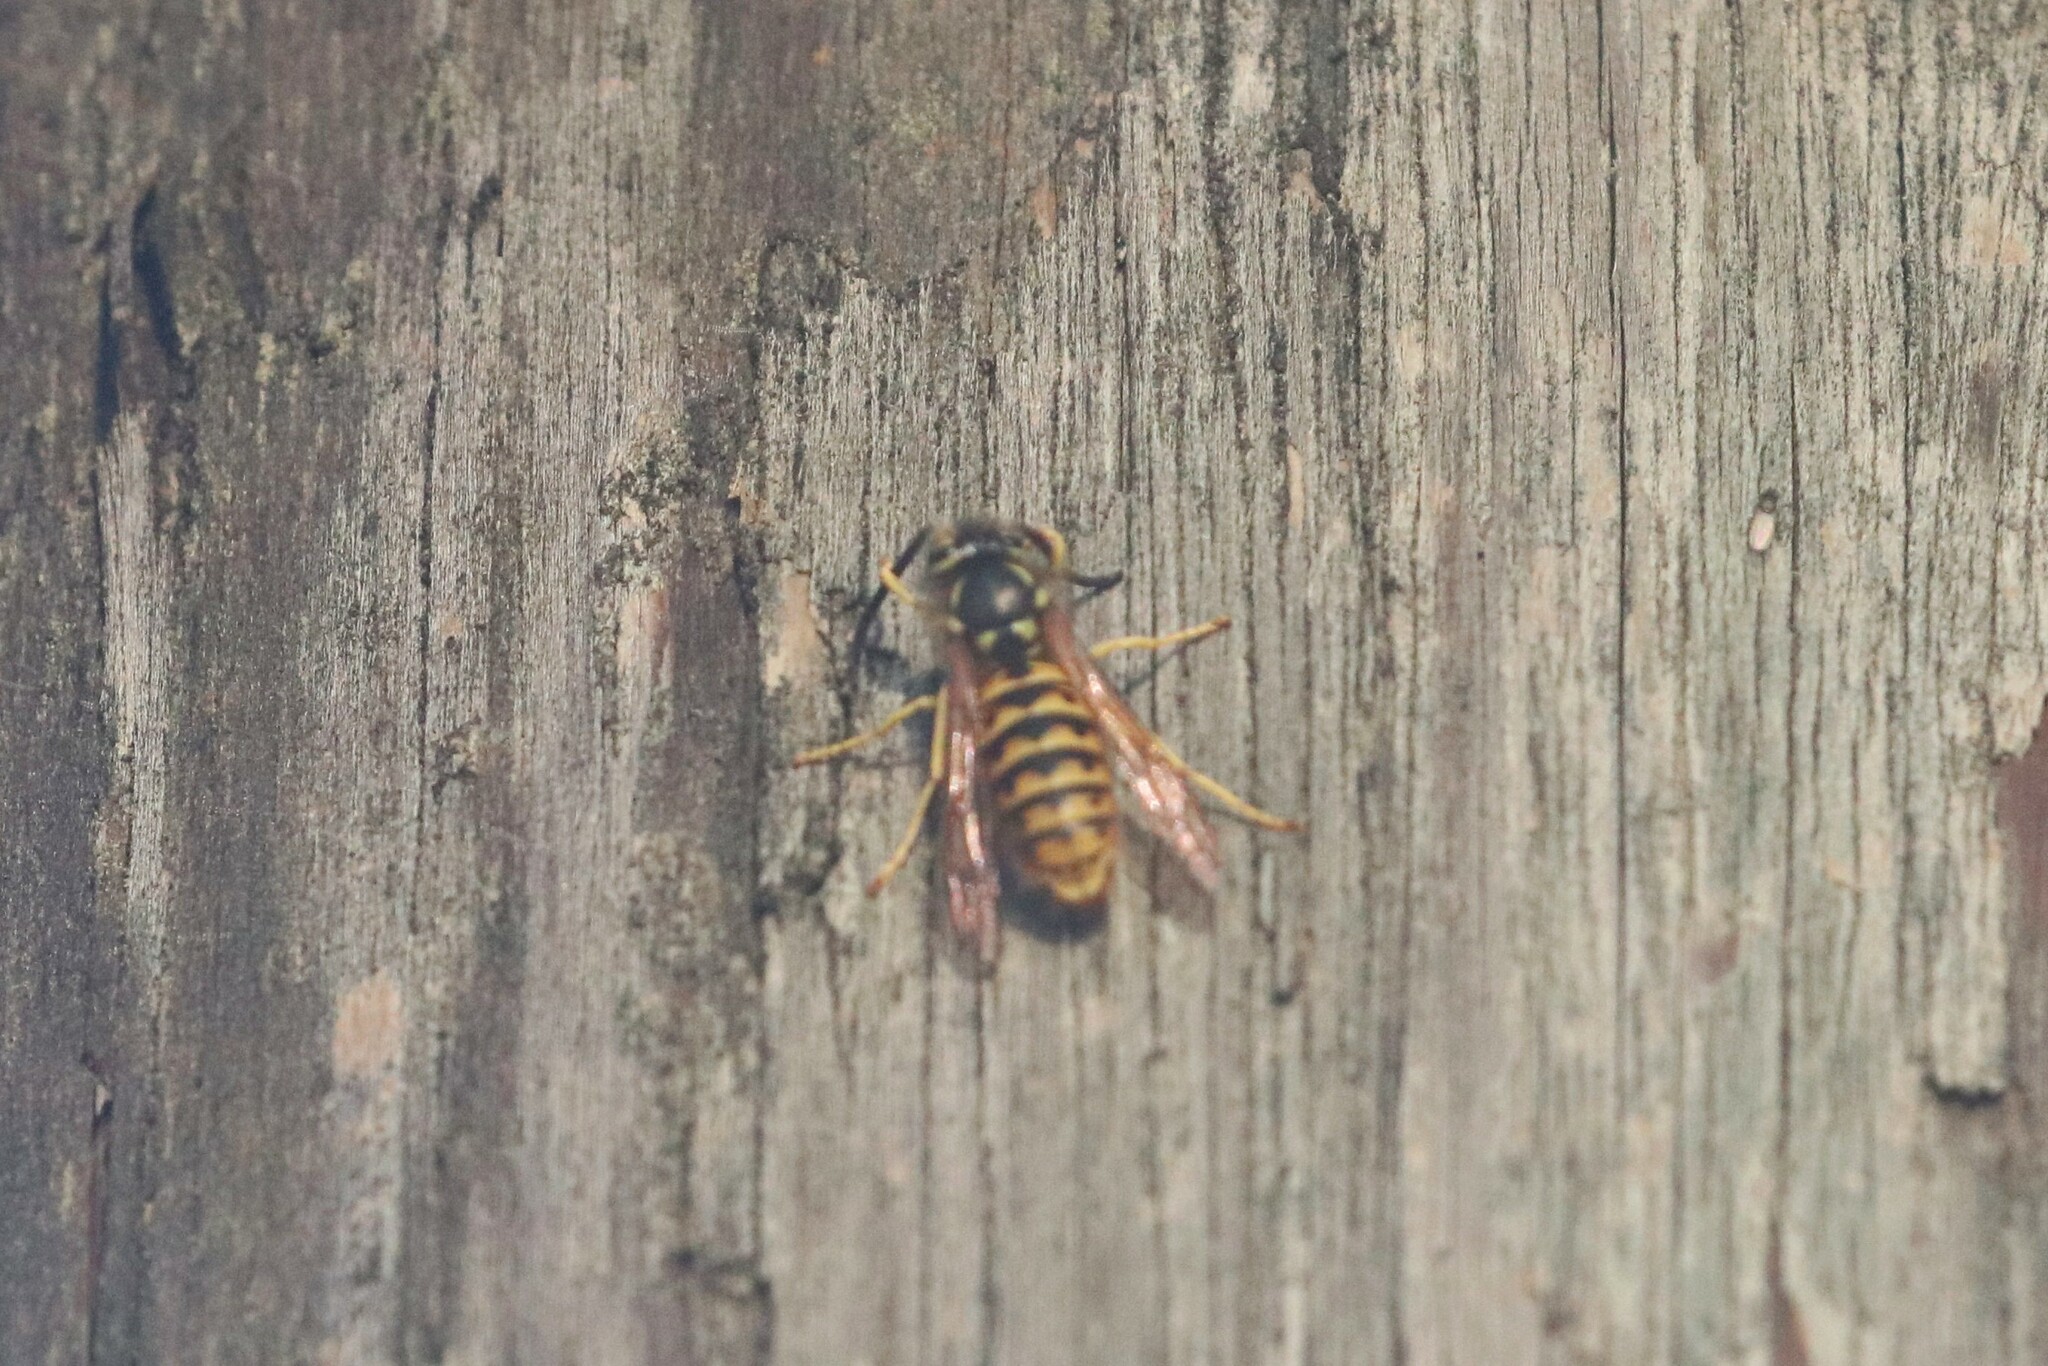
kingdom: Animalia
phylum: Arthropoda
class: Insecta
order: Hymenoptera
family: Vespidae
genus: Vespula
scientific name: Vespula germanica
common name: German wasp
